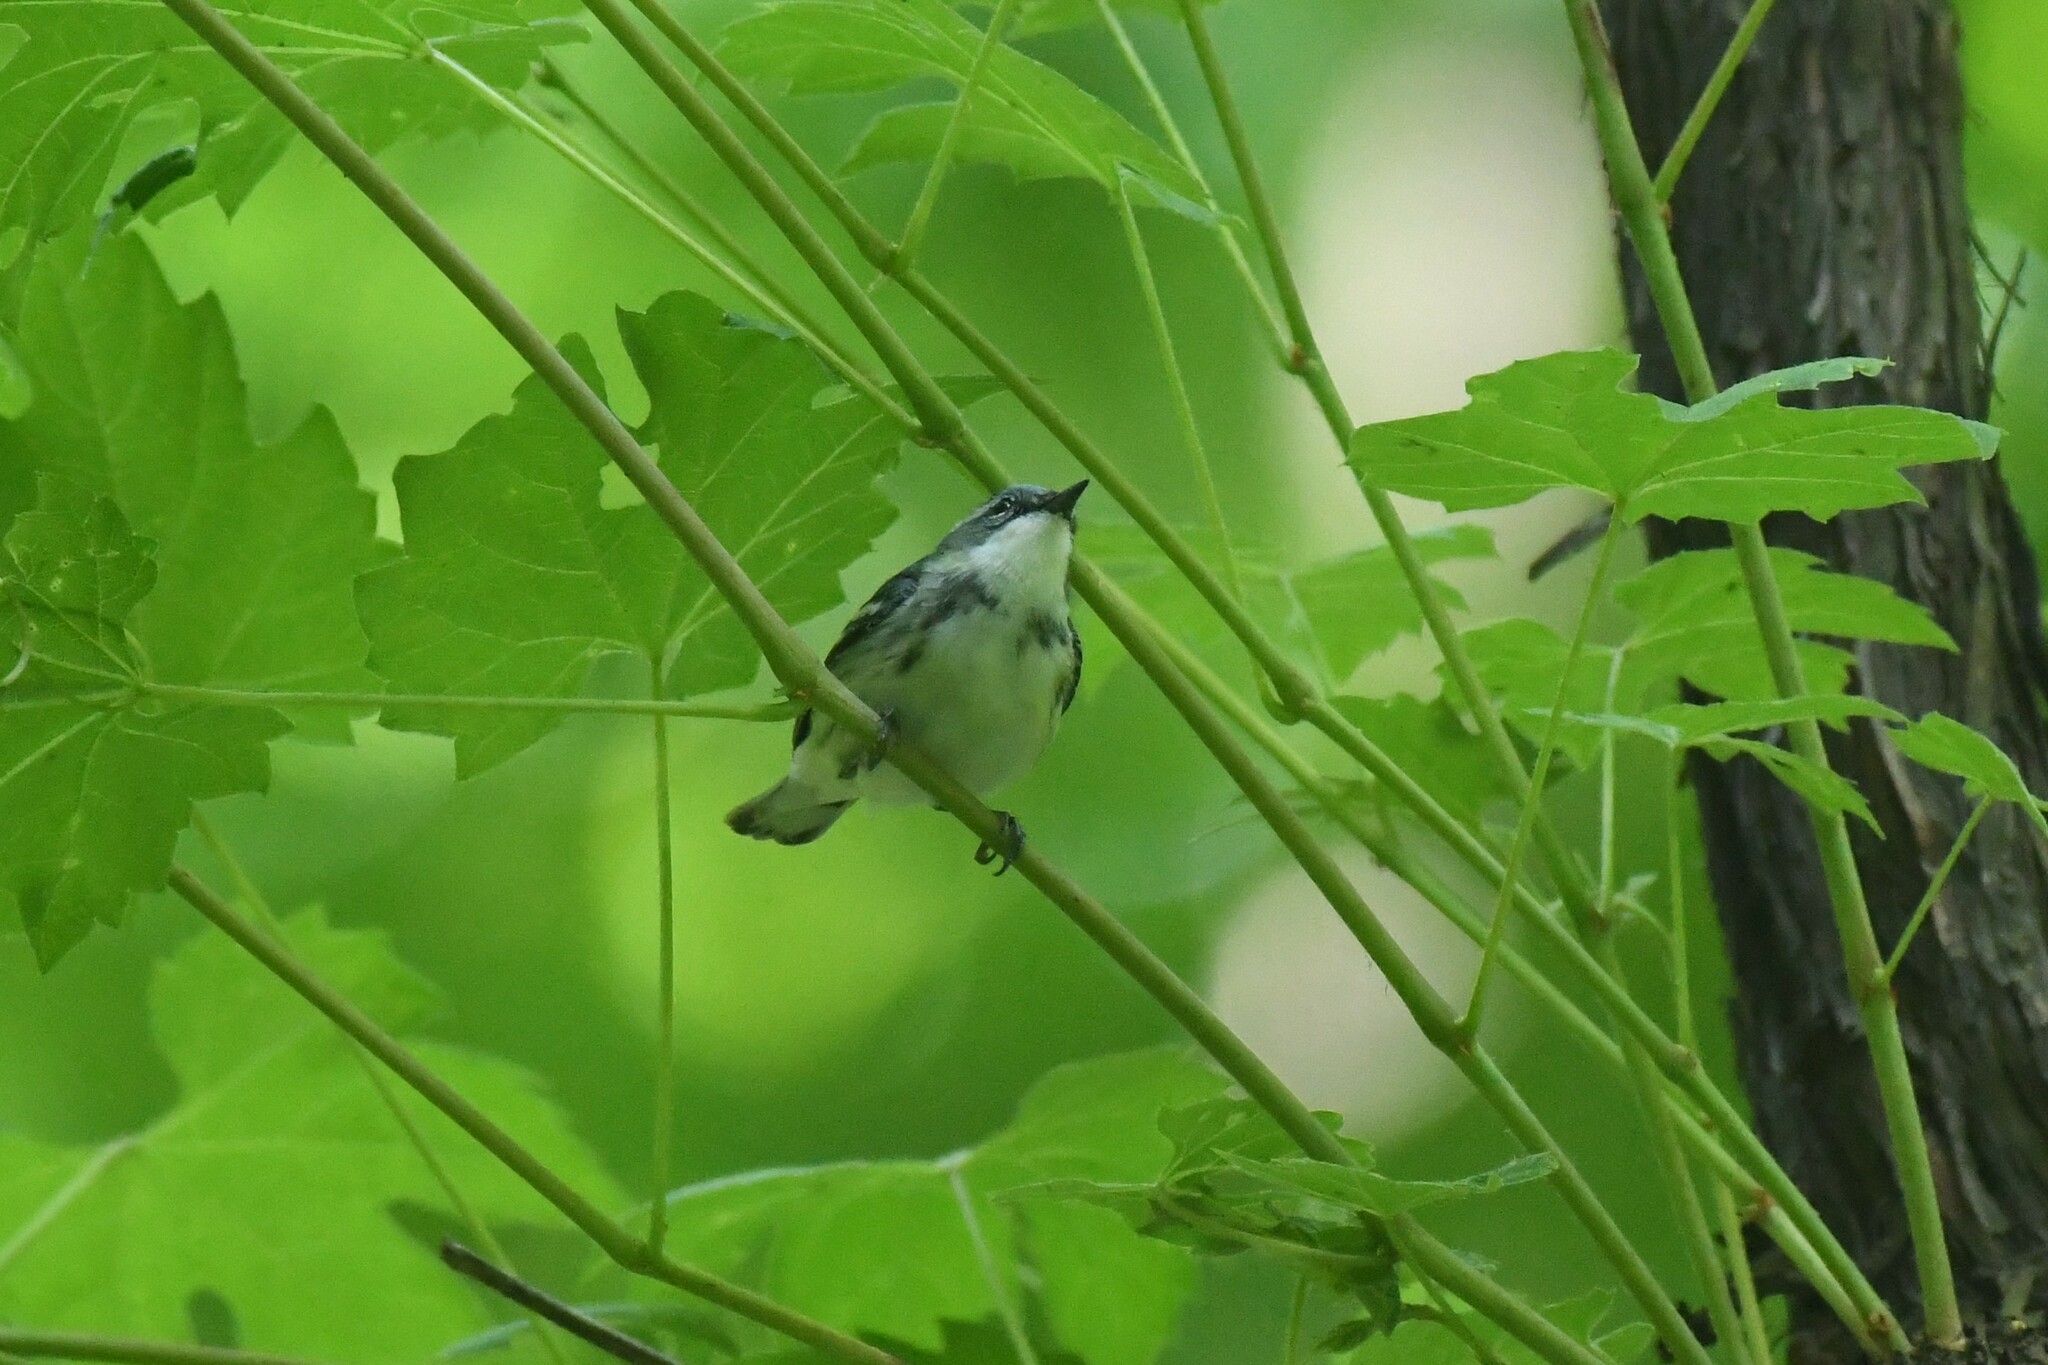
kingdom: Animalia
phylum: Chordata
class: Aves
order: Passeriformes
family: Parulidae
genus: Setophaga
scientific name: Setophaga cerulea
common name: Cerulean warbler
